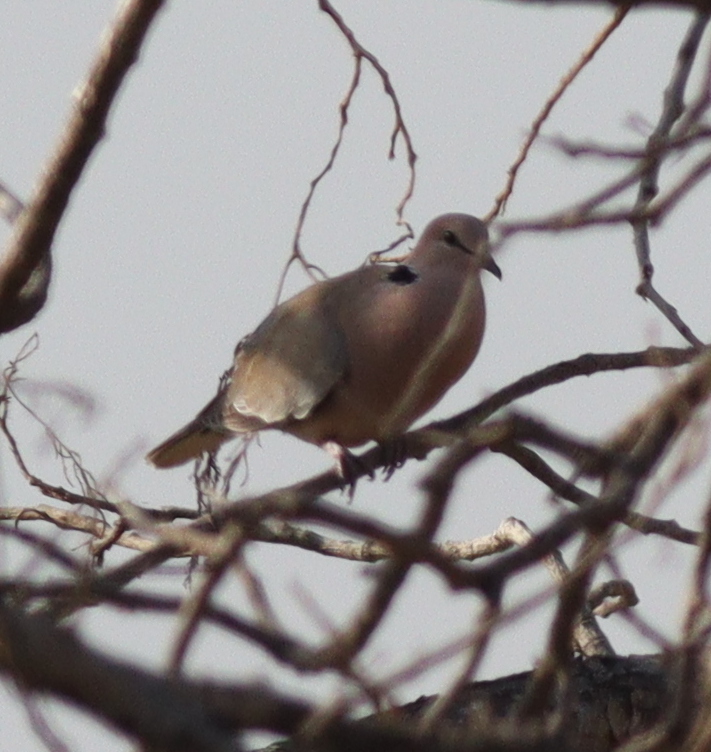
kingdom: Animalia
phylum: Chordata
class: Aves
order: Columbiformes
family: Columbidae
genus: Streptopelia
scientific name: Streptopelia vinacea
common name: Vinaceous dove
